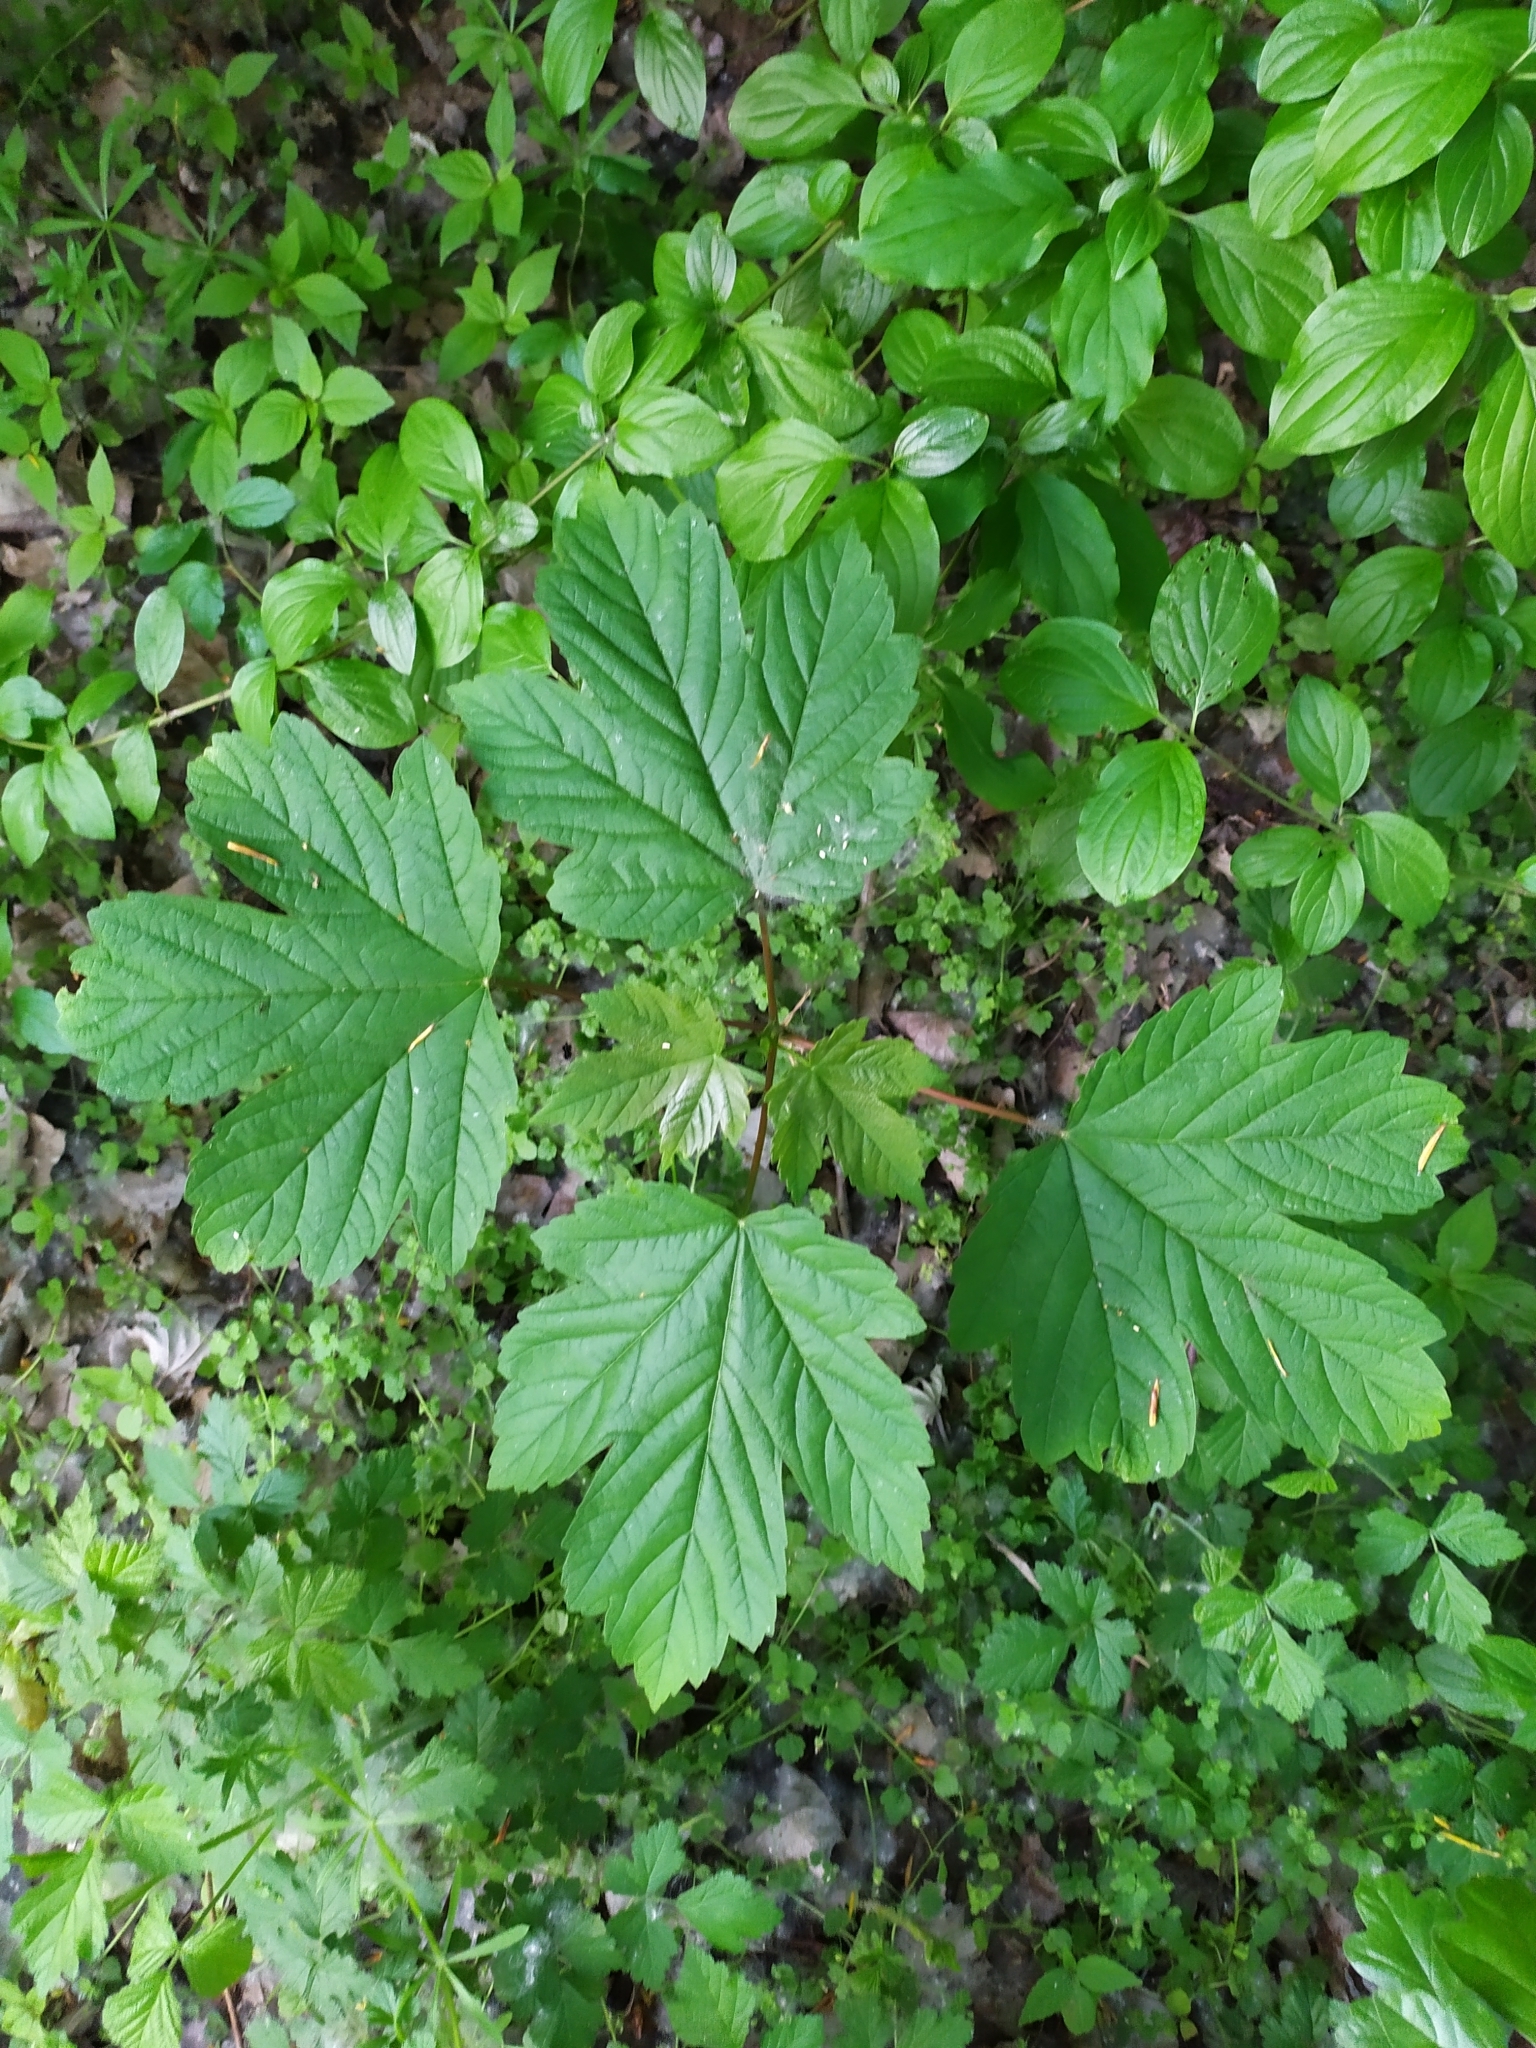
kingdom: Plantae
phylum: Tracheophyta
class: Magnoliopsida
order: Sapindales
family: Sapindaceae
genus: Acer
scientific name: Acer pseudoplatanus
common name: Sycamore
